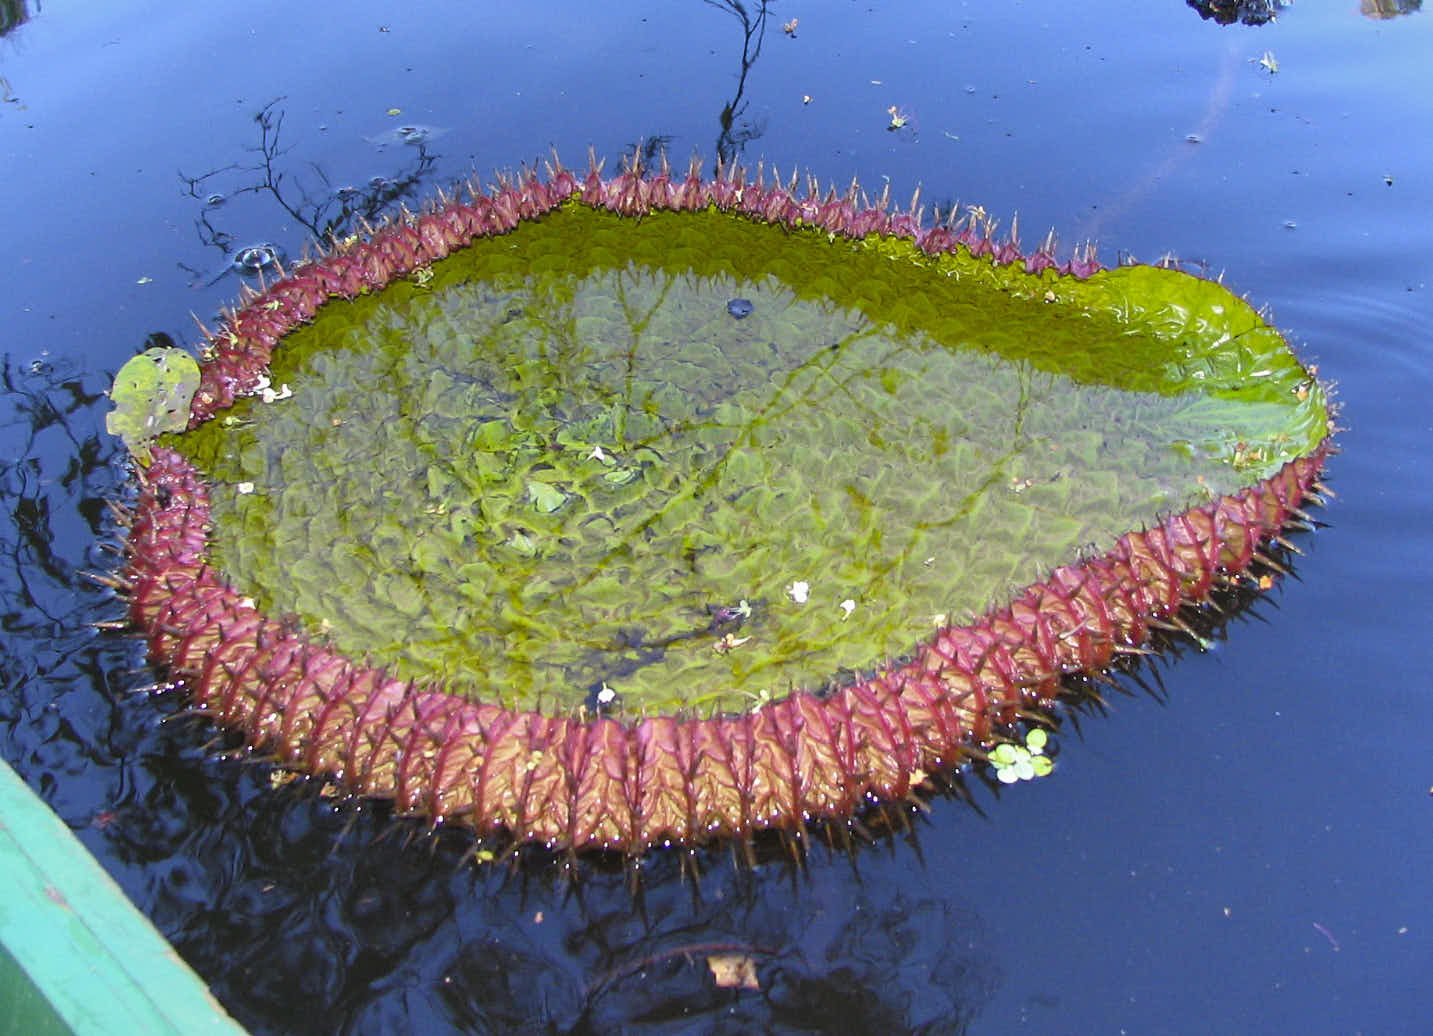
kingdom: Plantae
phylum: Tracheophyta
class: Magnoliopsida
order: Nymphaeales
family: Nymphaeaceae
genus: Victoria
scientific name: Victoria amazonica
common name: Amazon water-lily
